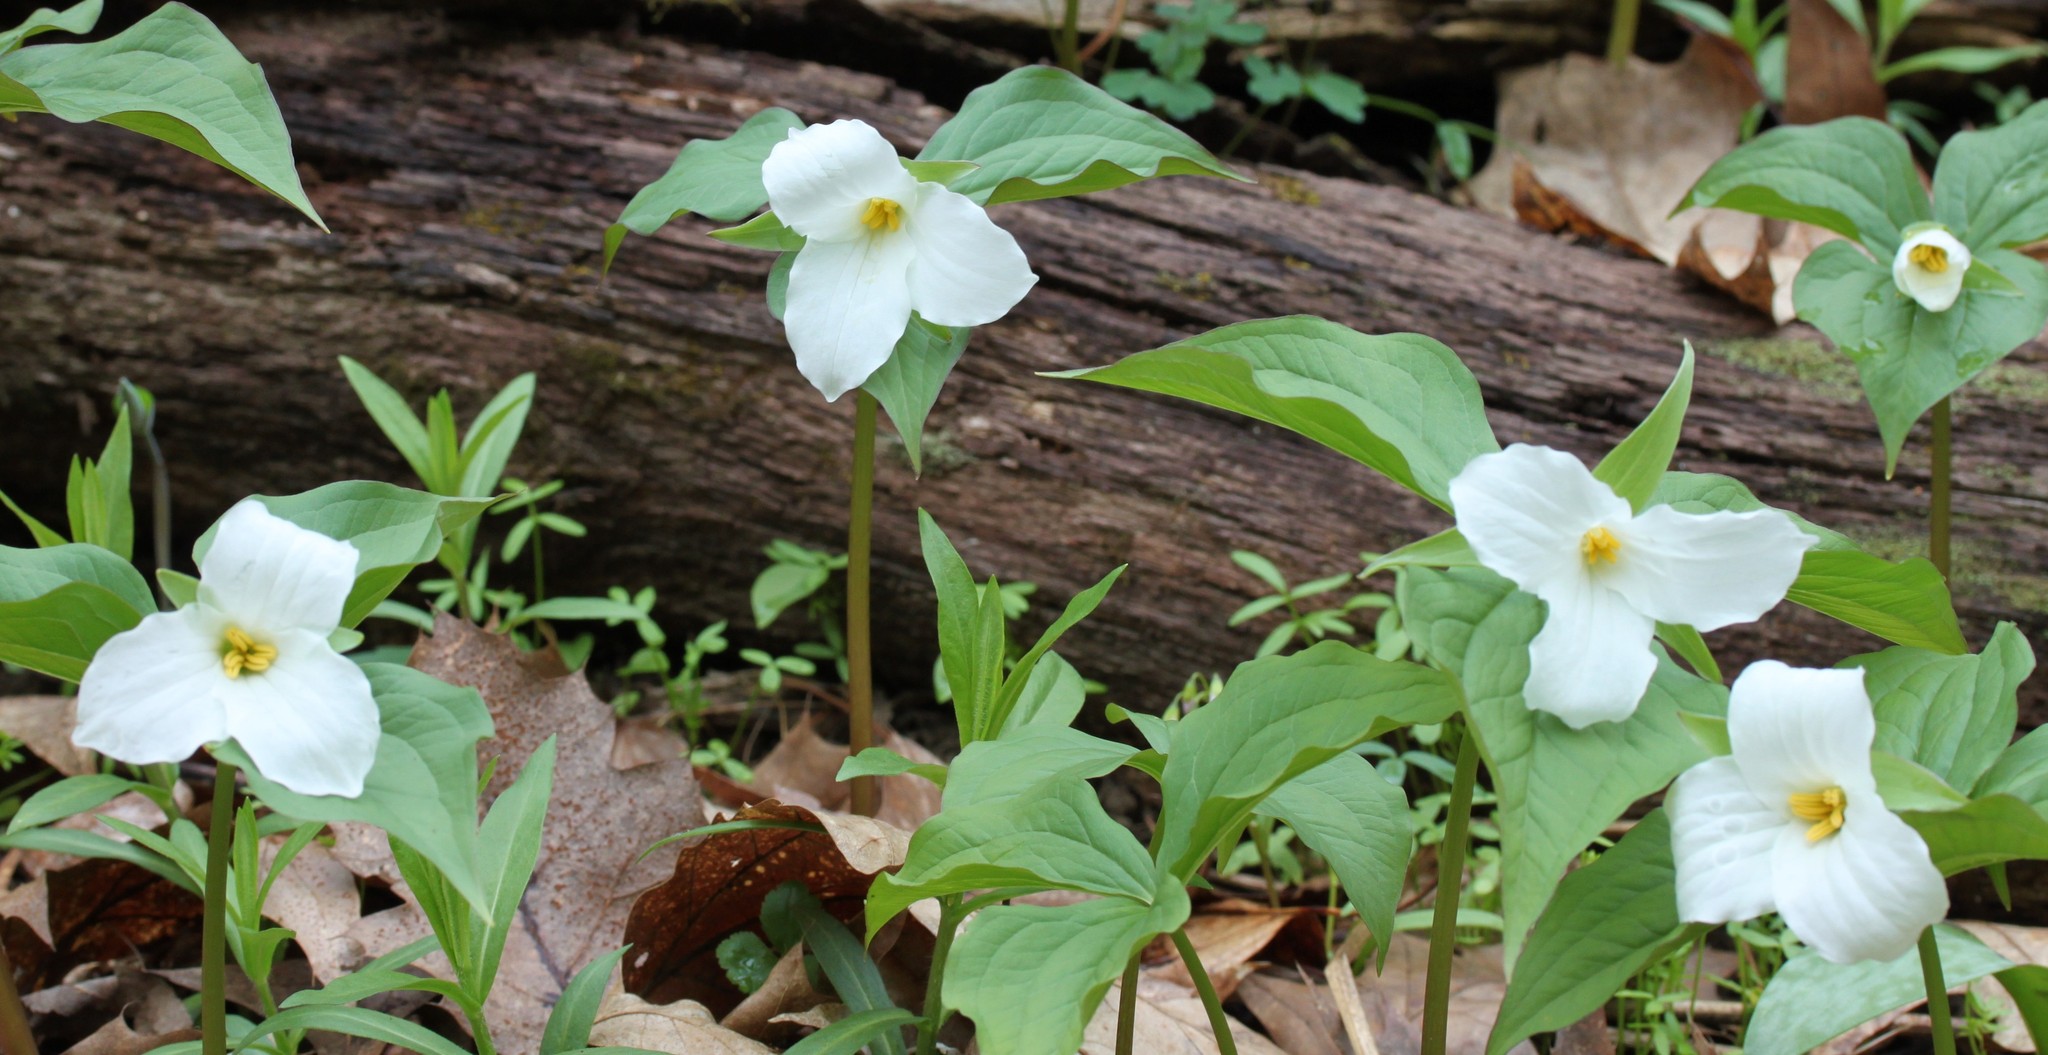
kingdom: Plantae
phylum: Tracheophyta
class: Liliopsida
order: Liliales
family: Melanthiaceae
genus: Trillium
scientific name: Trillium grandiflorum
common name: Great white trillium
